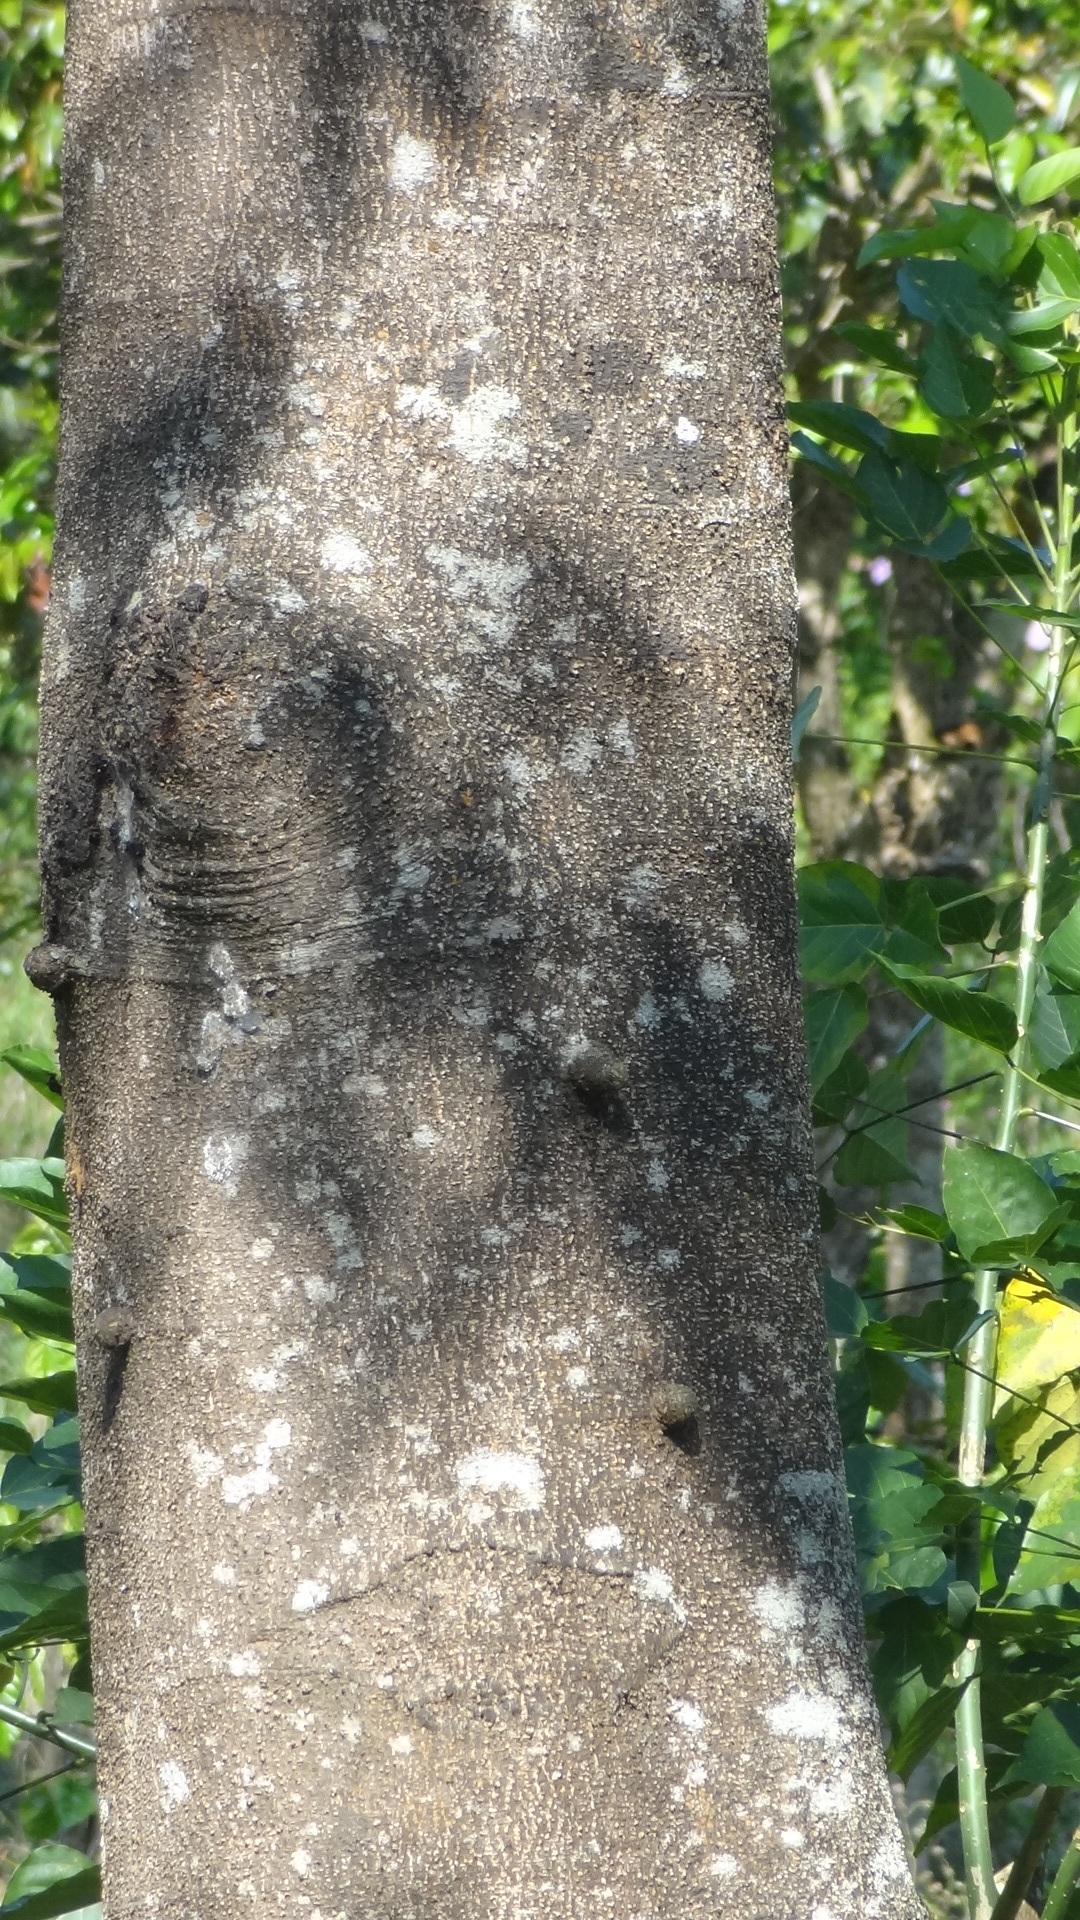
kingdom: Plantae
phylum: Tracheophyta
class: Magnoliopsida
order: Fabales
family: Fabaceae
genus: Albizia
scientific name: Albizia chinensis
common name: Chinese albizia
